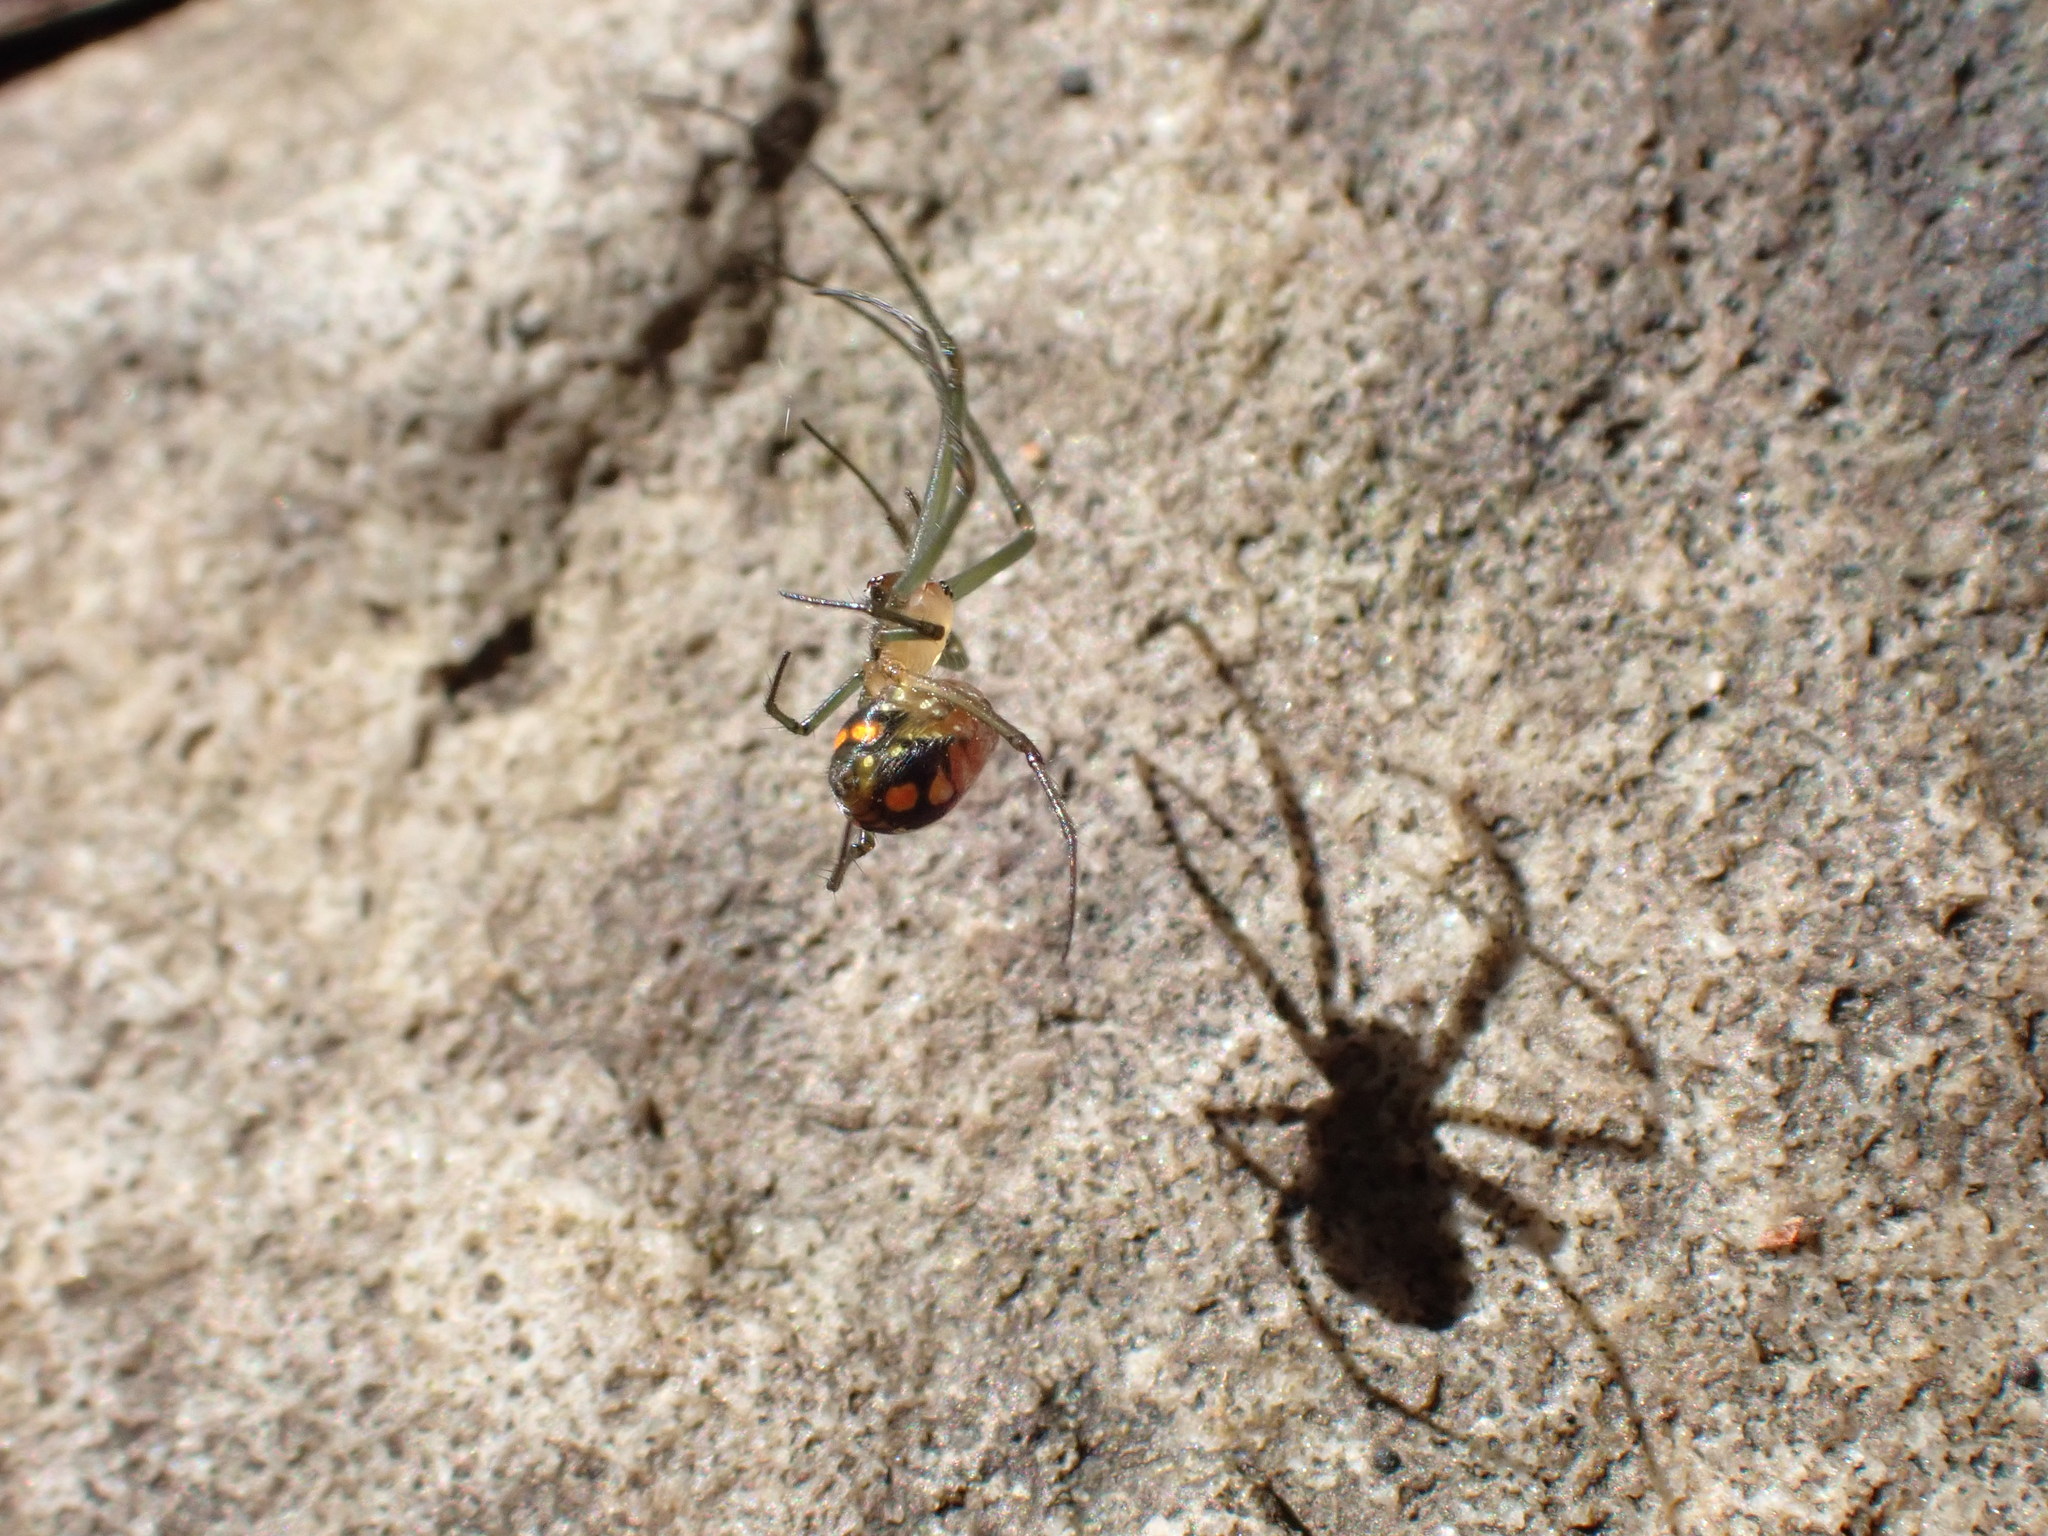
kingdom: Animalia
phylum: Arthropoda
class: Arachnida
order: Araneae
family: Tetragnathidae
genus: Leucauge
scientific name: Leucauge thomeensis
